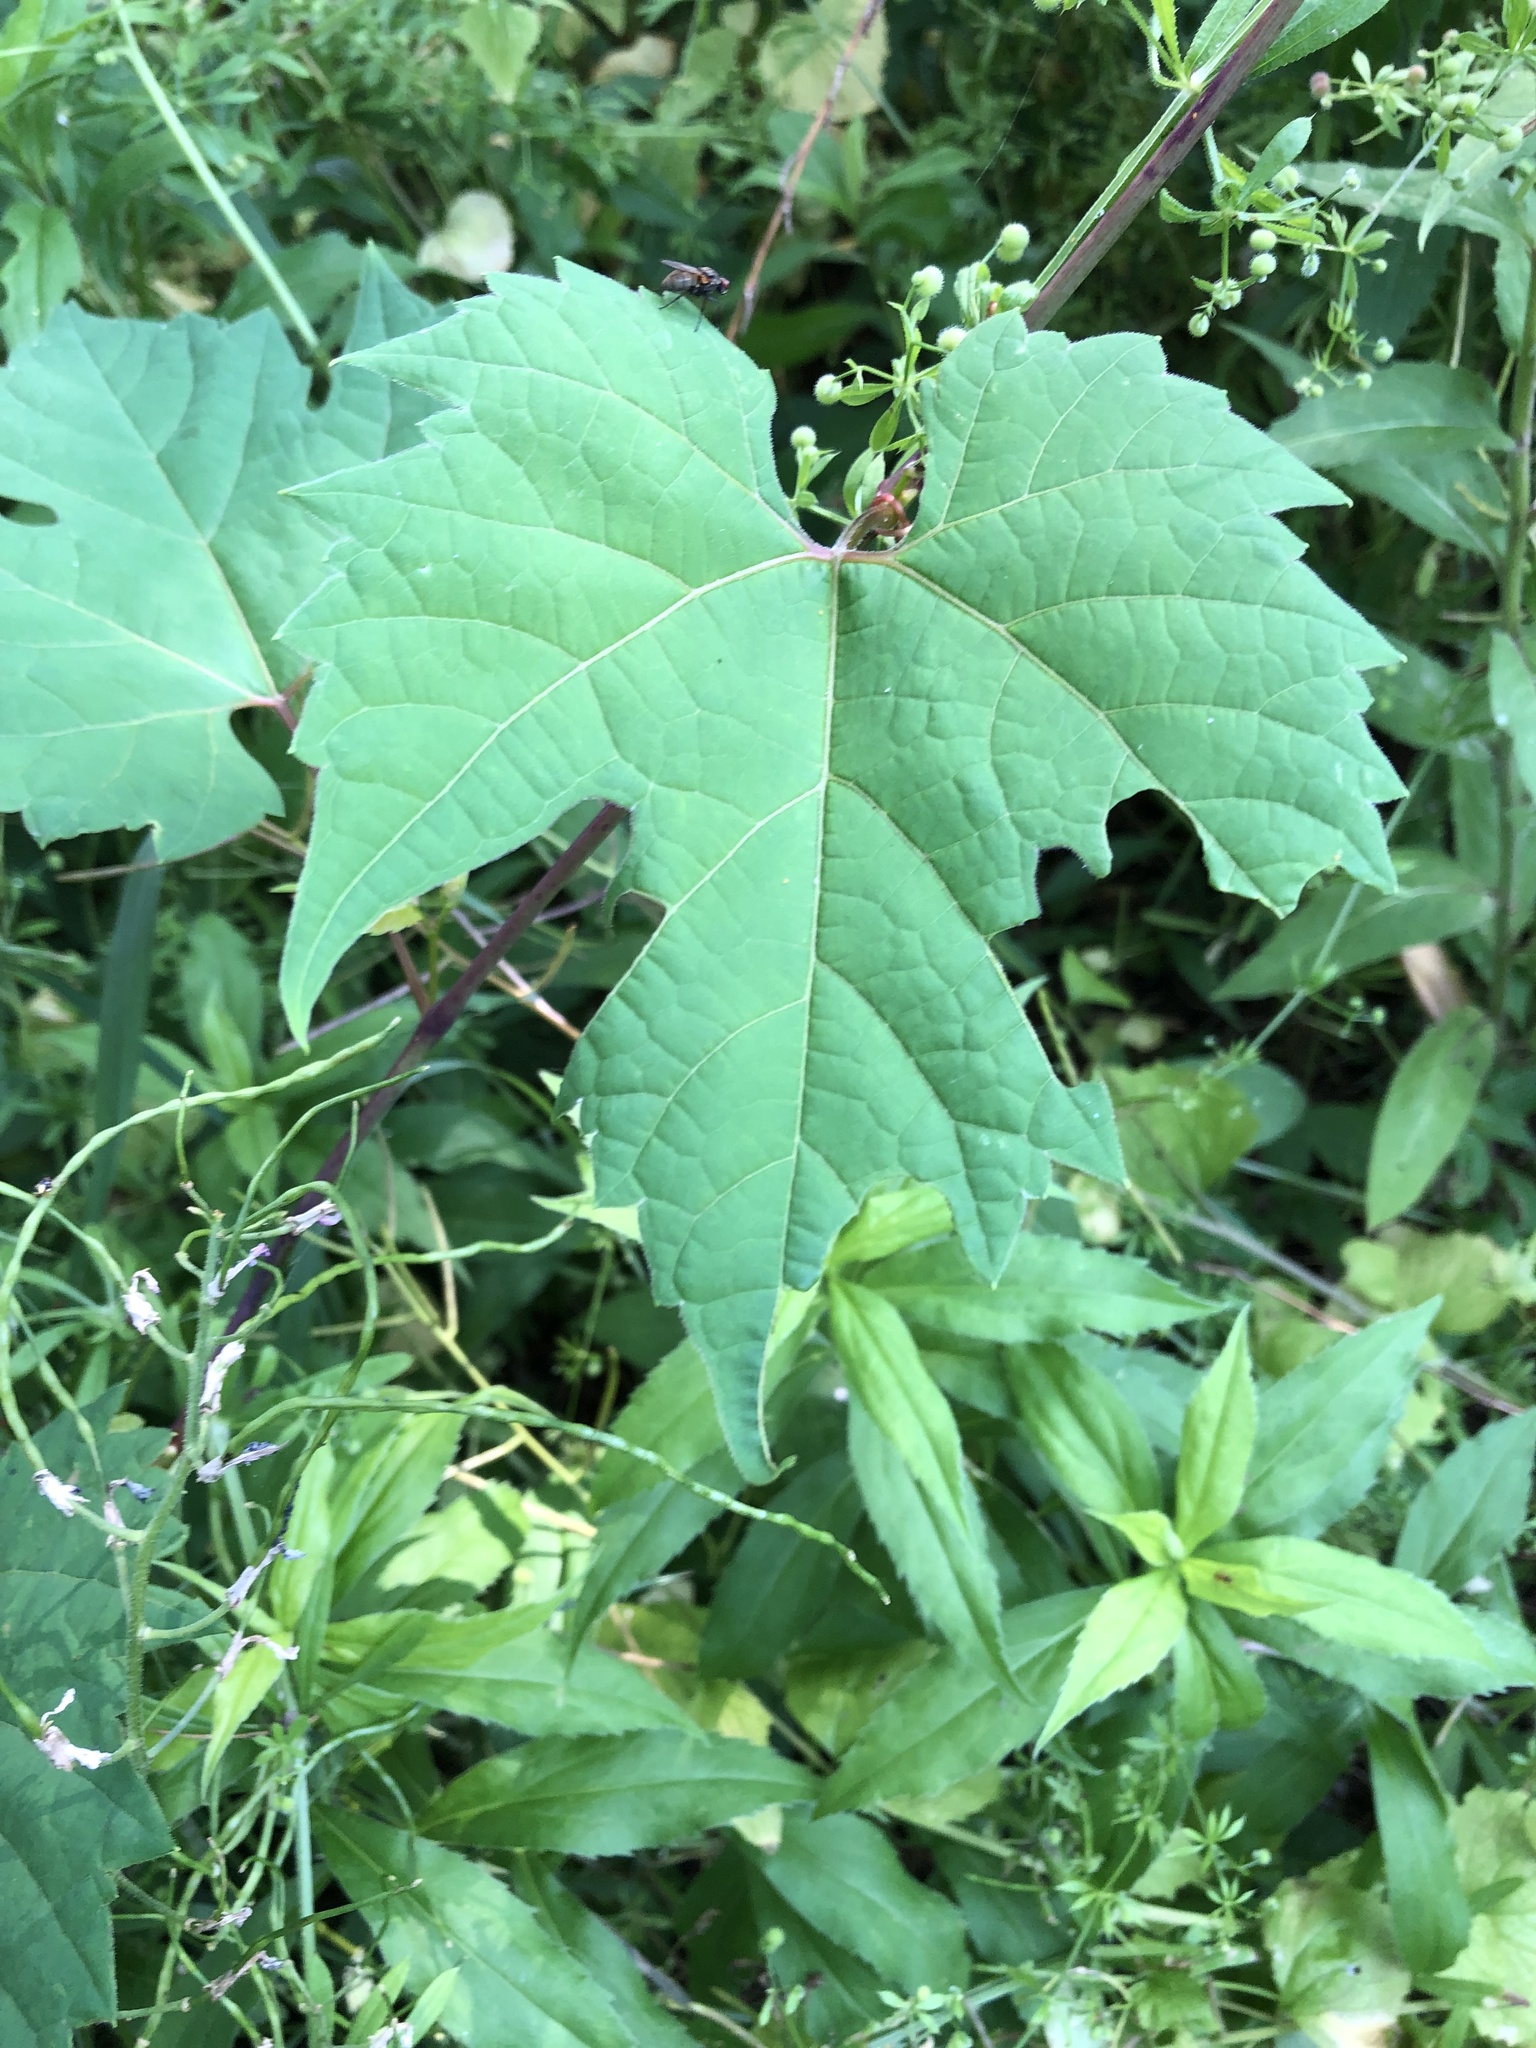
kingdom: Plantae
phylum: Tracheophyta
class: Magnoliopsida
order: Vitales
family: Vitaceae
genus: Vitis
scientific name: Vitis riparia
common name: Frost grape
